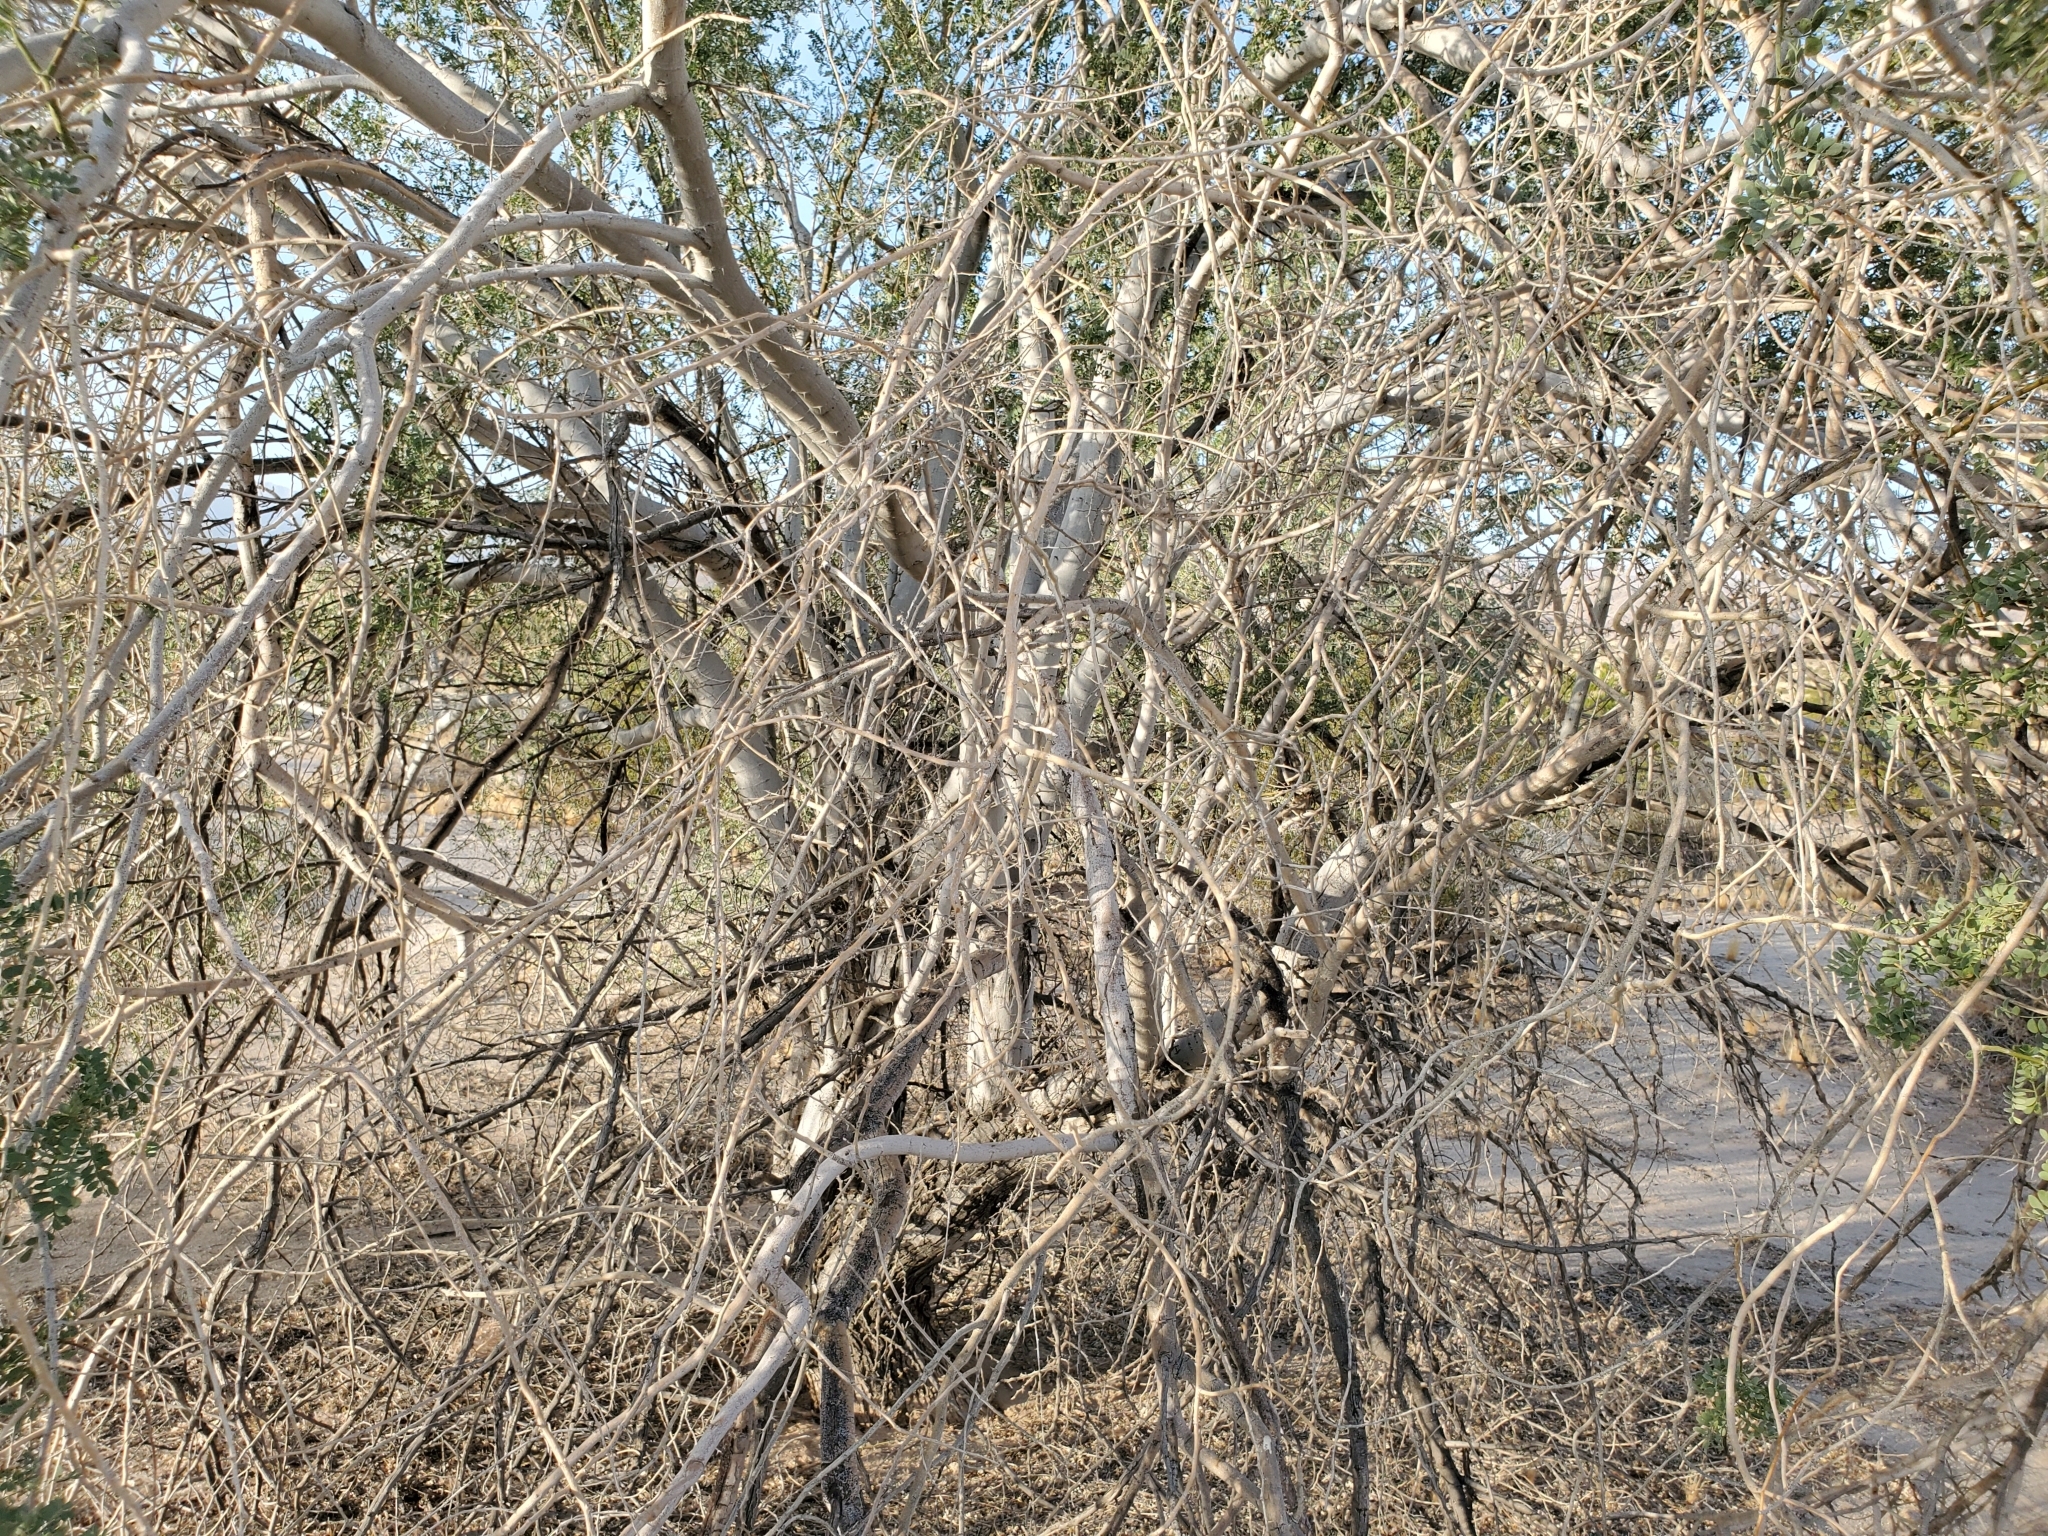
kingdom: Plantae
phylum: Tracheophyta
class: Magnoliopsida
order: Fabales
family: Fabaceae
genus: Olneya
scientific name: Olneya tesota
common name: Desert ironwood
